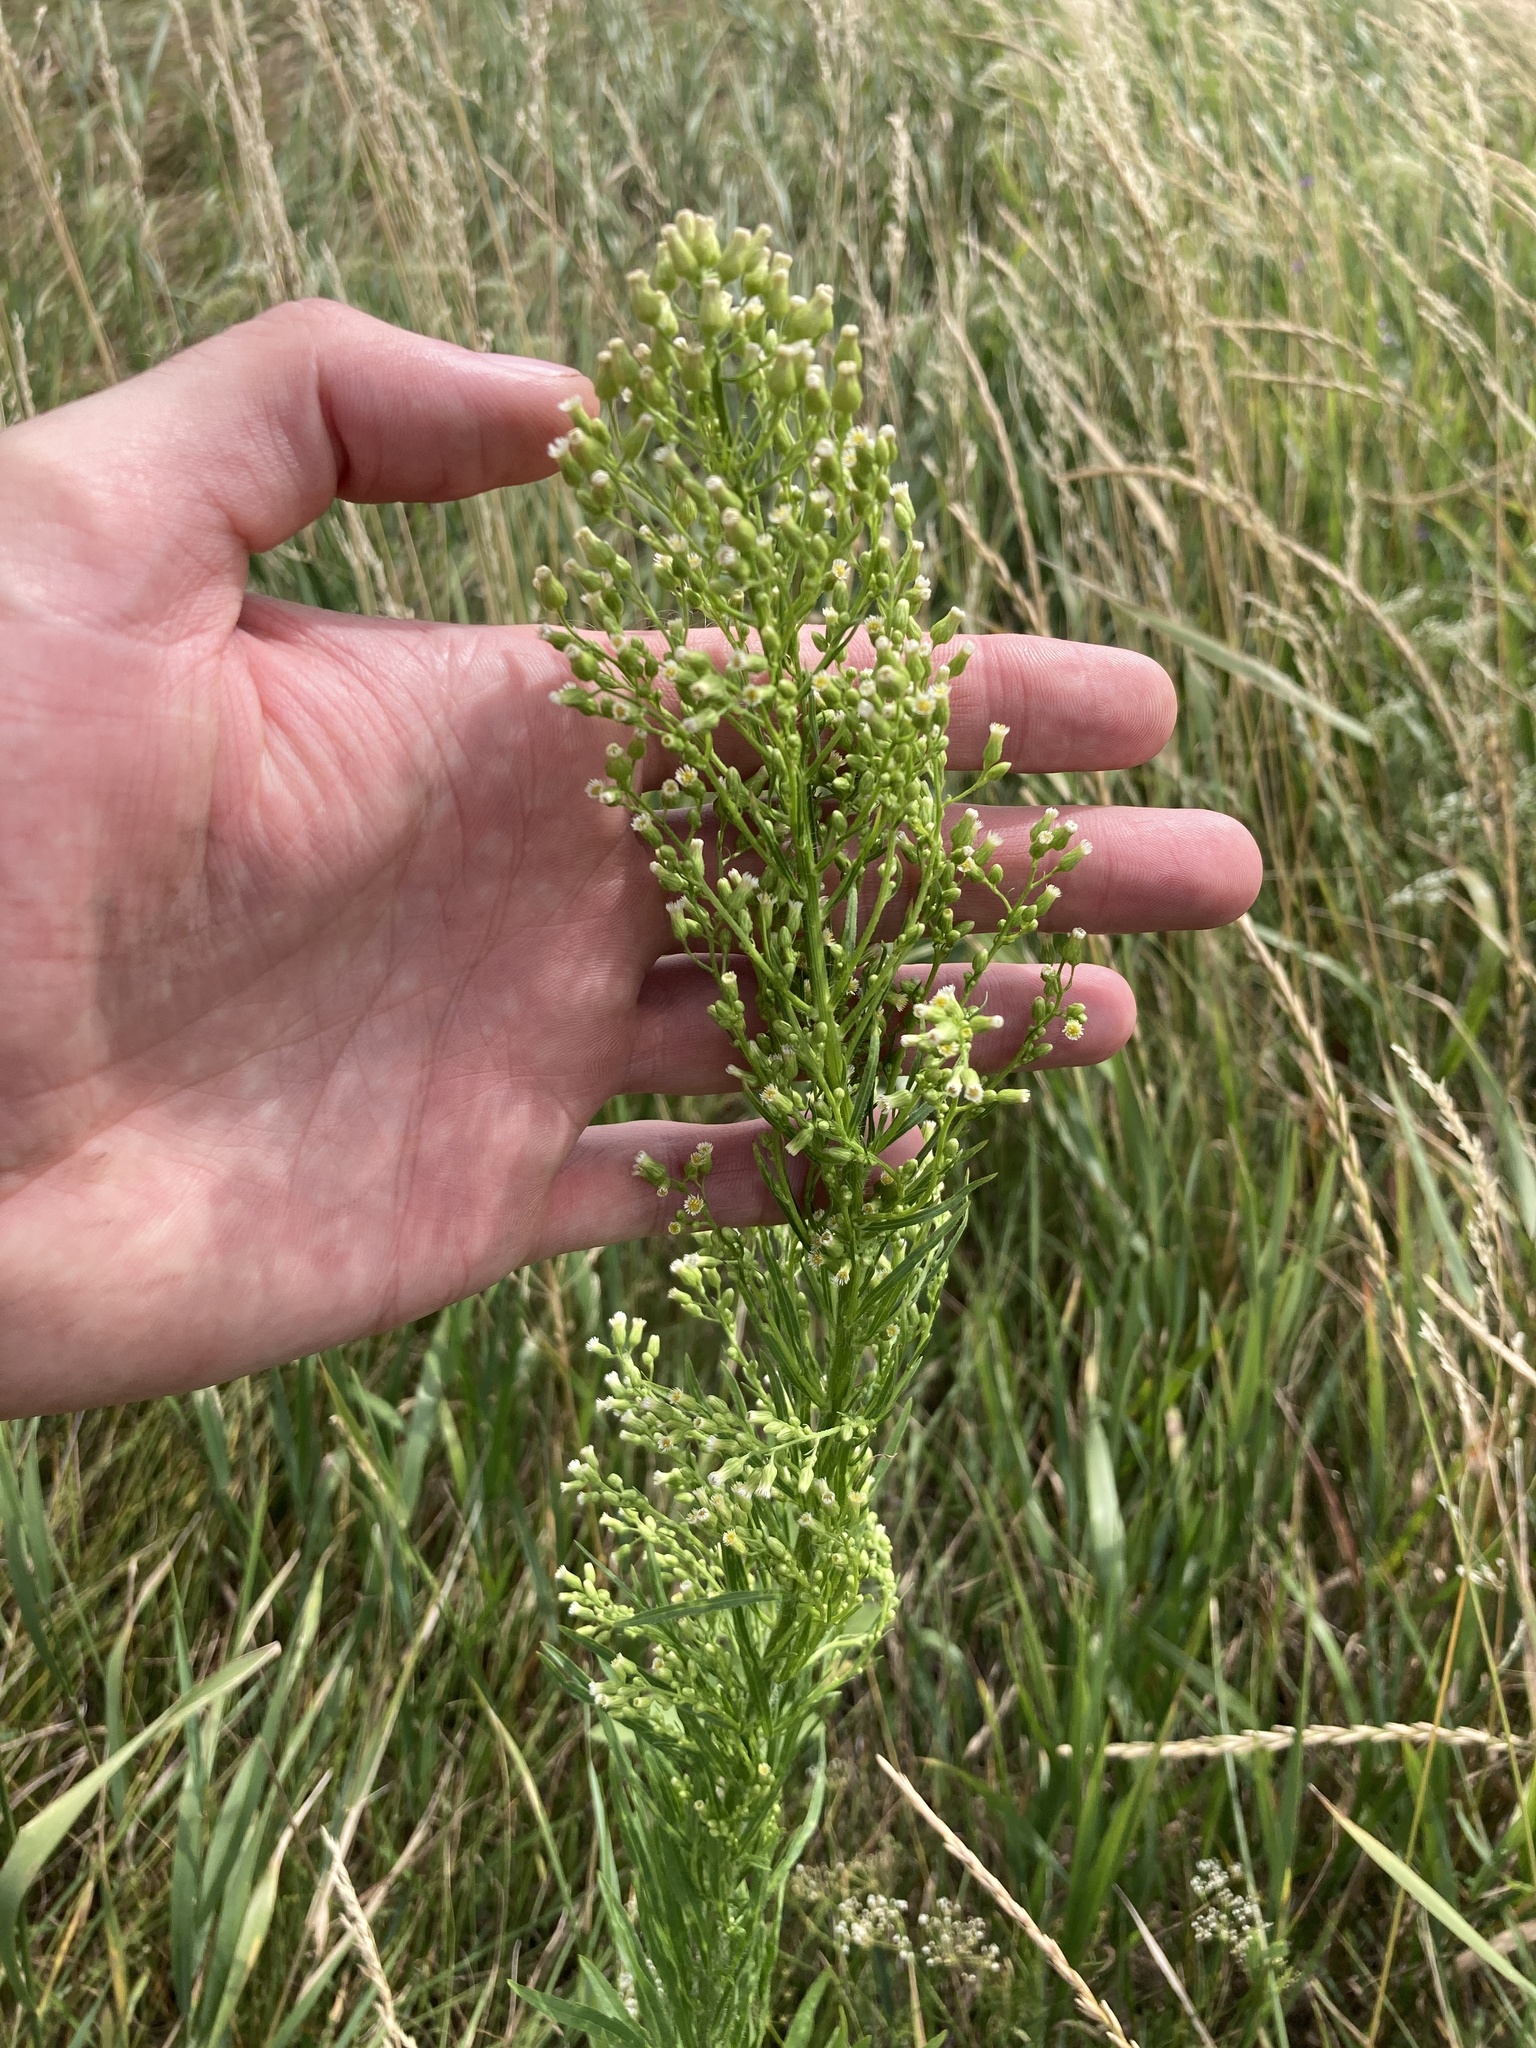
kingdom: Plantae
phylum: Tracheophyta
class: Magnoliopsida
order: Asterales
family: Asteraceae
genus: Erigeron
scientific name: Erigeron canadensis
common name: Canadian fleabane
